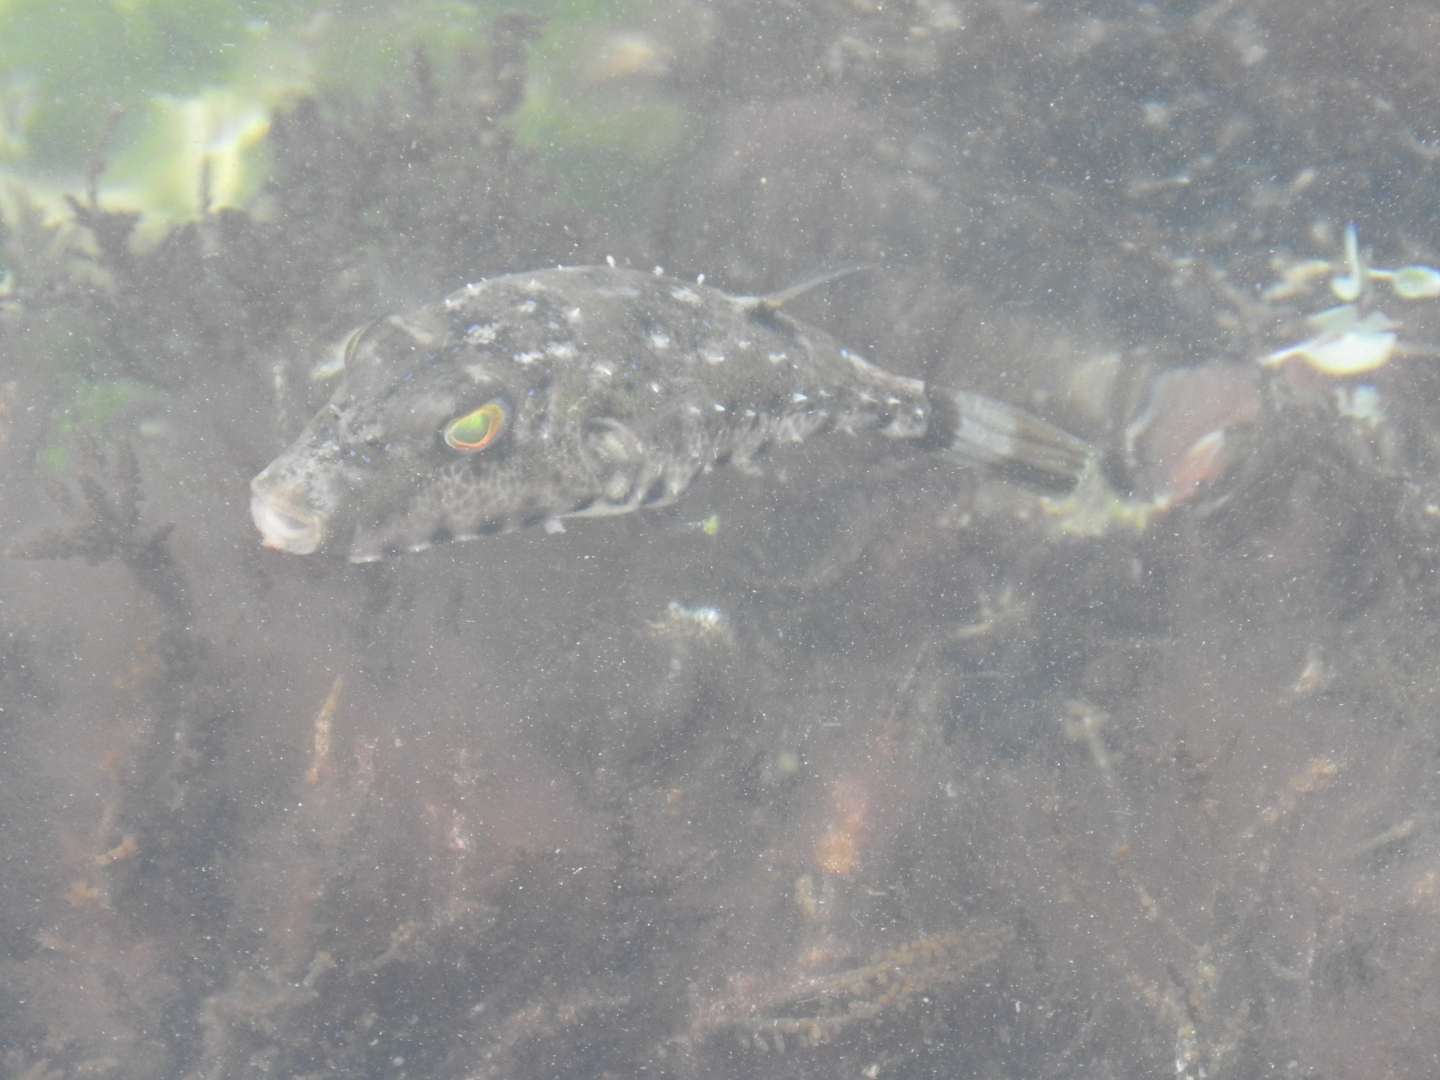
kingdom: Animalia
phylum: Chordata
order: Tetraodontiformes
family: Tetraodontidae
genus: Sphoeroides
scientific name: Sphoeroides spengleri
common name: Bandtail puffer
